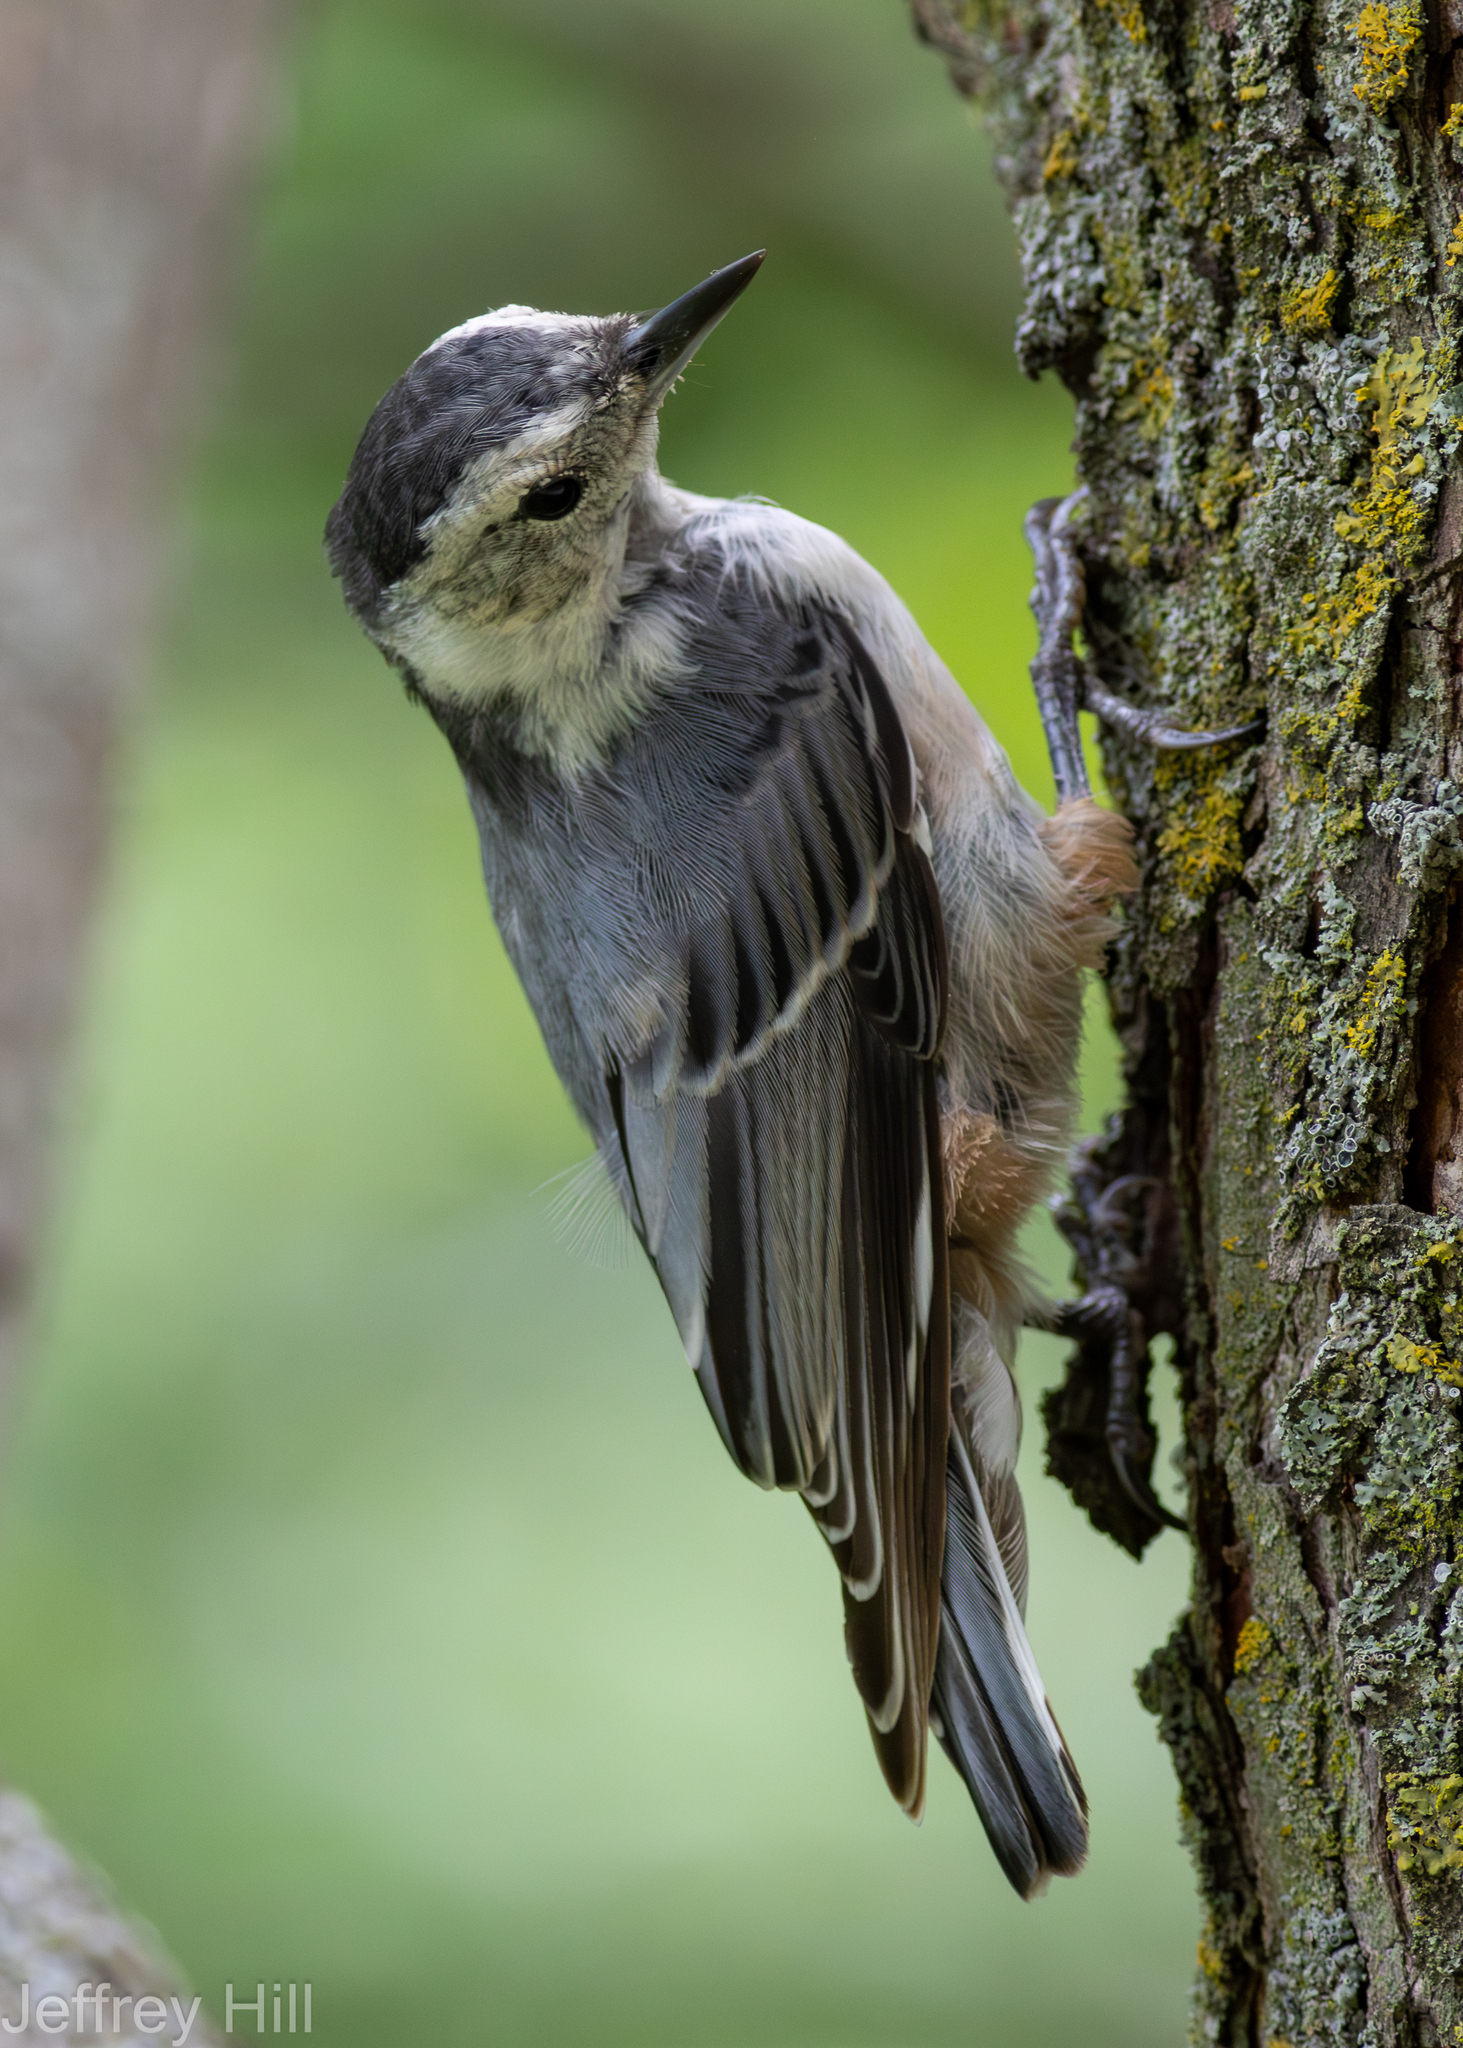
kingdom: Animalia
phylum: Chordata
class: Aves
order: Passeriformes
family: Sittidae
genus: Sitta
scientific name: Sitta carolinensis
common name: White-breasted nuthatch
